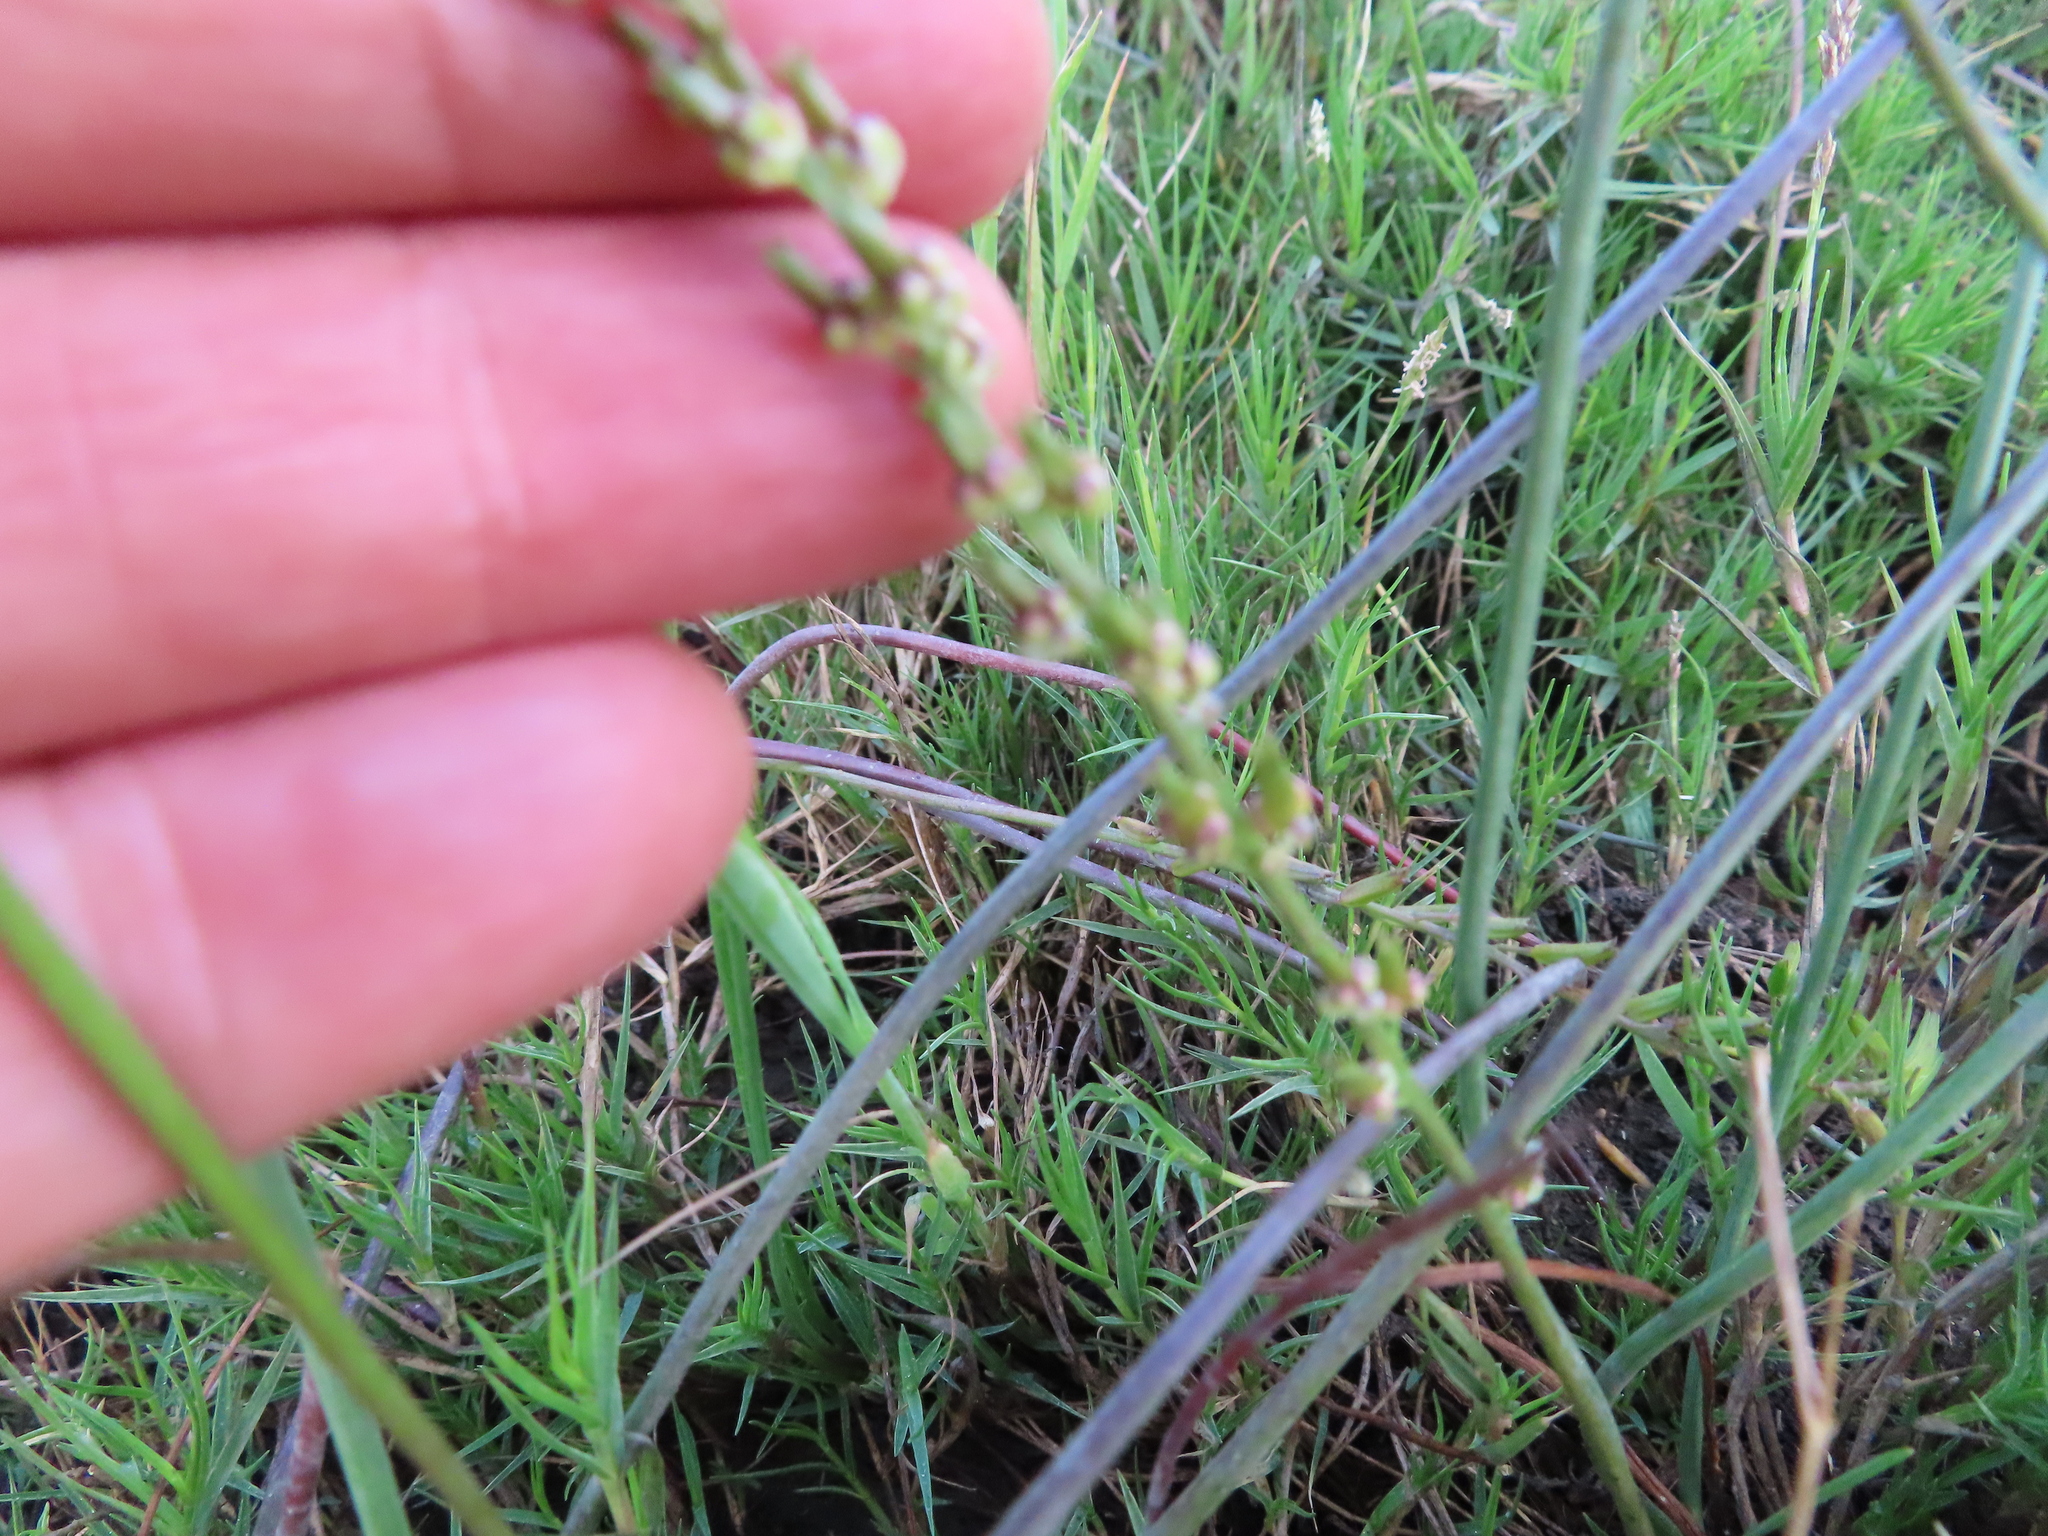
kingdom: Plantae
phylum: Tracheophyta
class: Liliopsida
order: Alismatales
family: Juncaginaceae
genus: Triglochin
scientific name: Triglochin bulbosa
